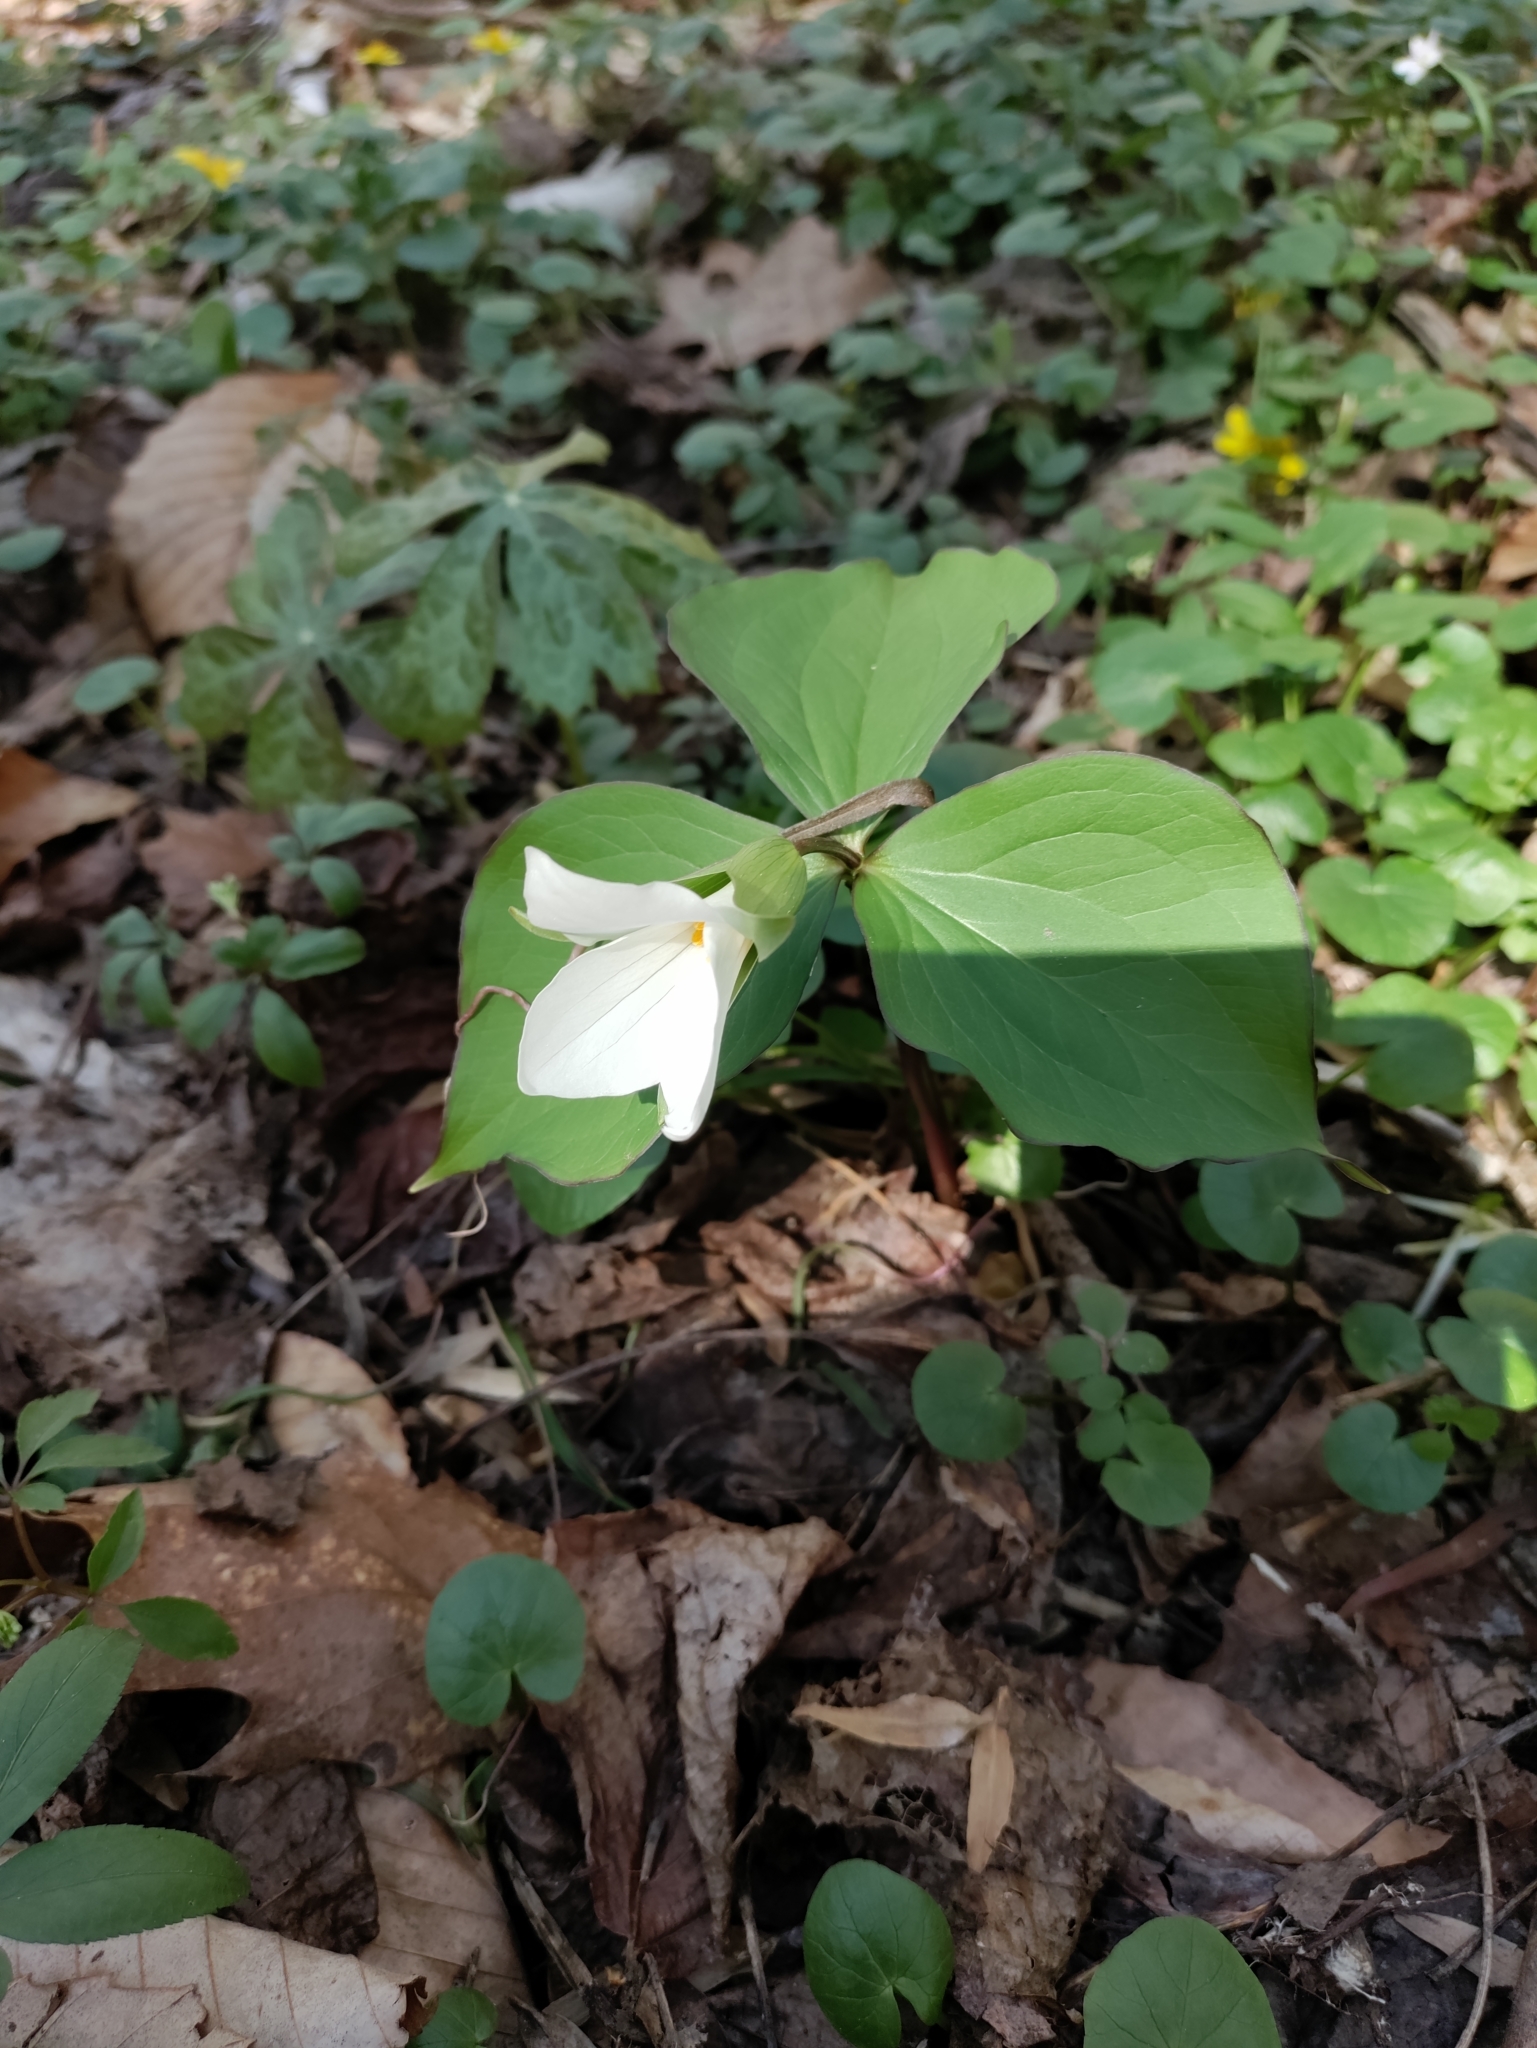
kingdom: Plantae
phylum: Tracheophyta
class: Liliopsida
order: Liliales
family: Melanthiaceae
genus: Trillium
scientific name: Trillium grandiflorum
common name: Great white trillium
